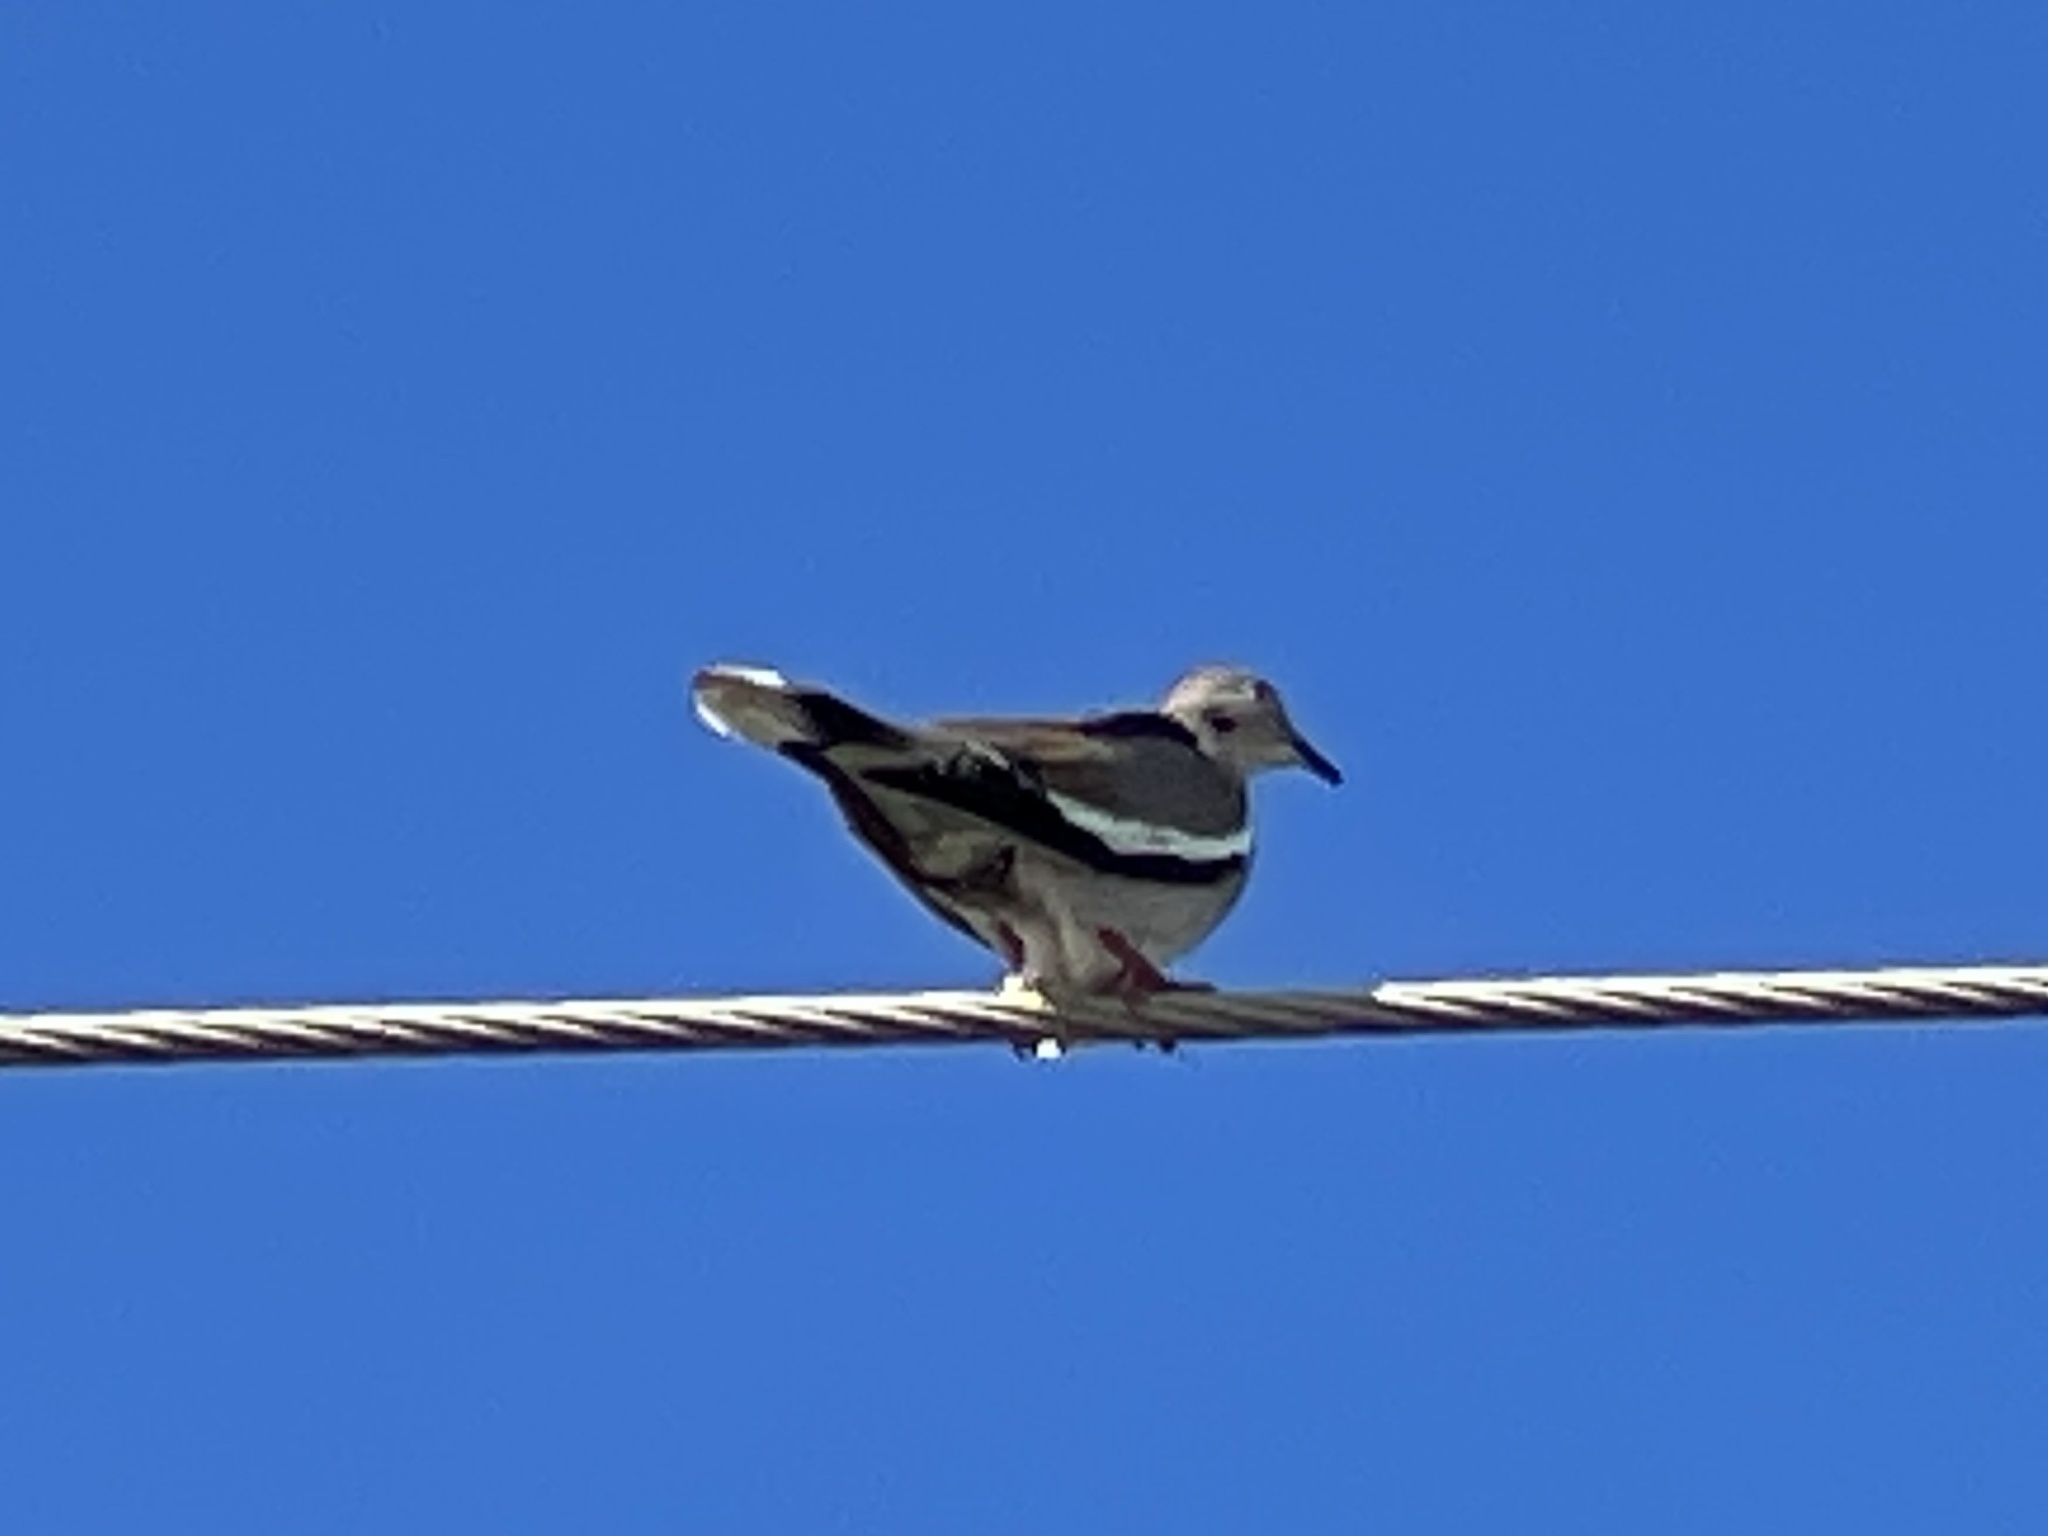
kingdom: Animalia
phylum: Chordata
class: Aves
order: Columbiformes
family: Columbidae
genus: Zenaida
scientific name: Zenaida asiatica
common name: White-winged dove
